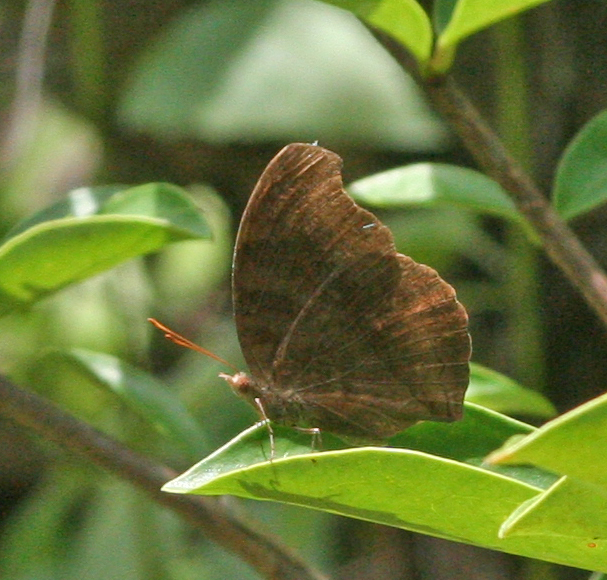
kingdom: Animalia
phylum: Arthropoda
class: Insecta
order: Lepidoptera
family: Nymphalidae
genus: Junonia
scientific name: Junonia iphita
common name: Chocolate pansy
